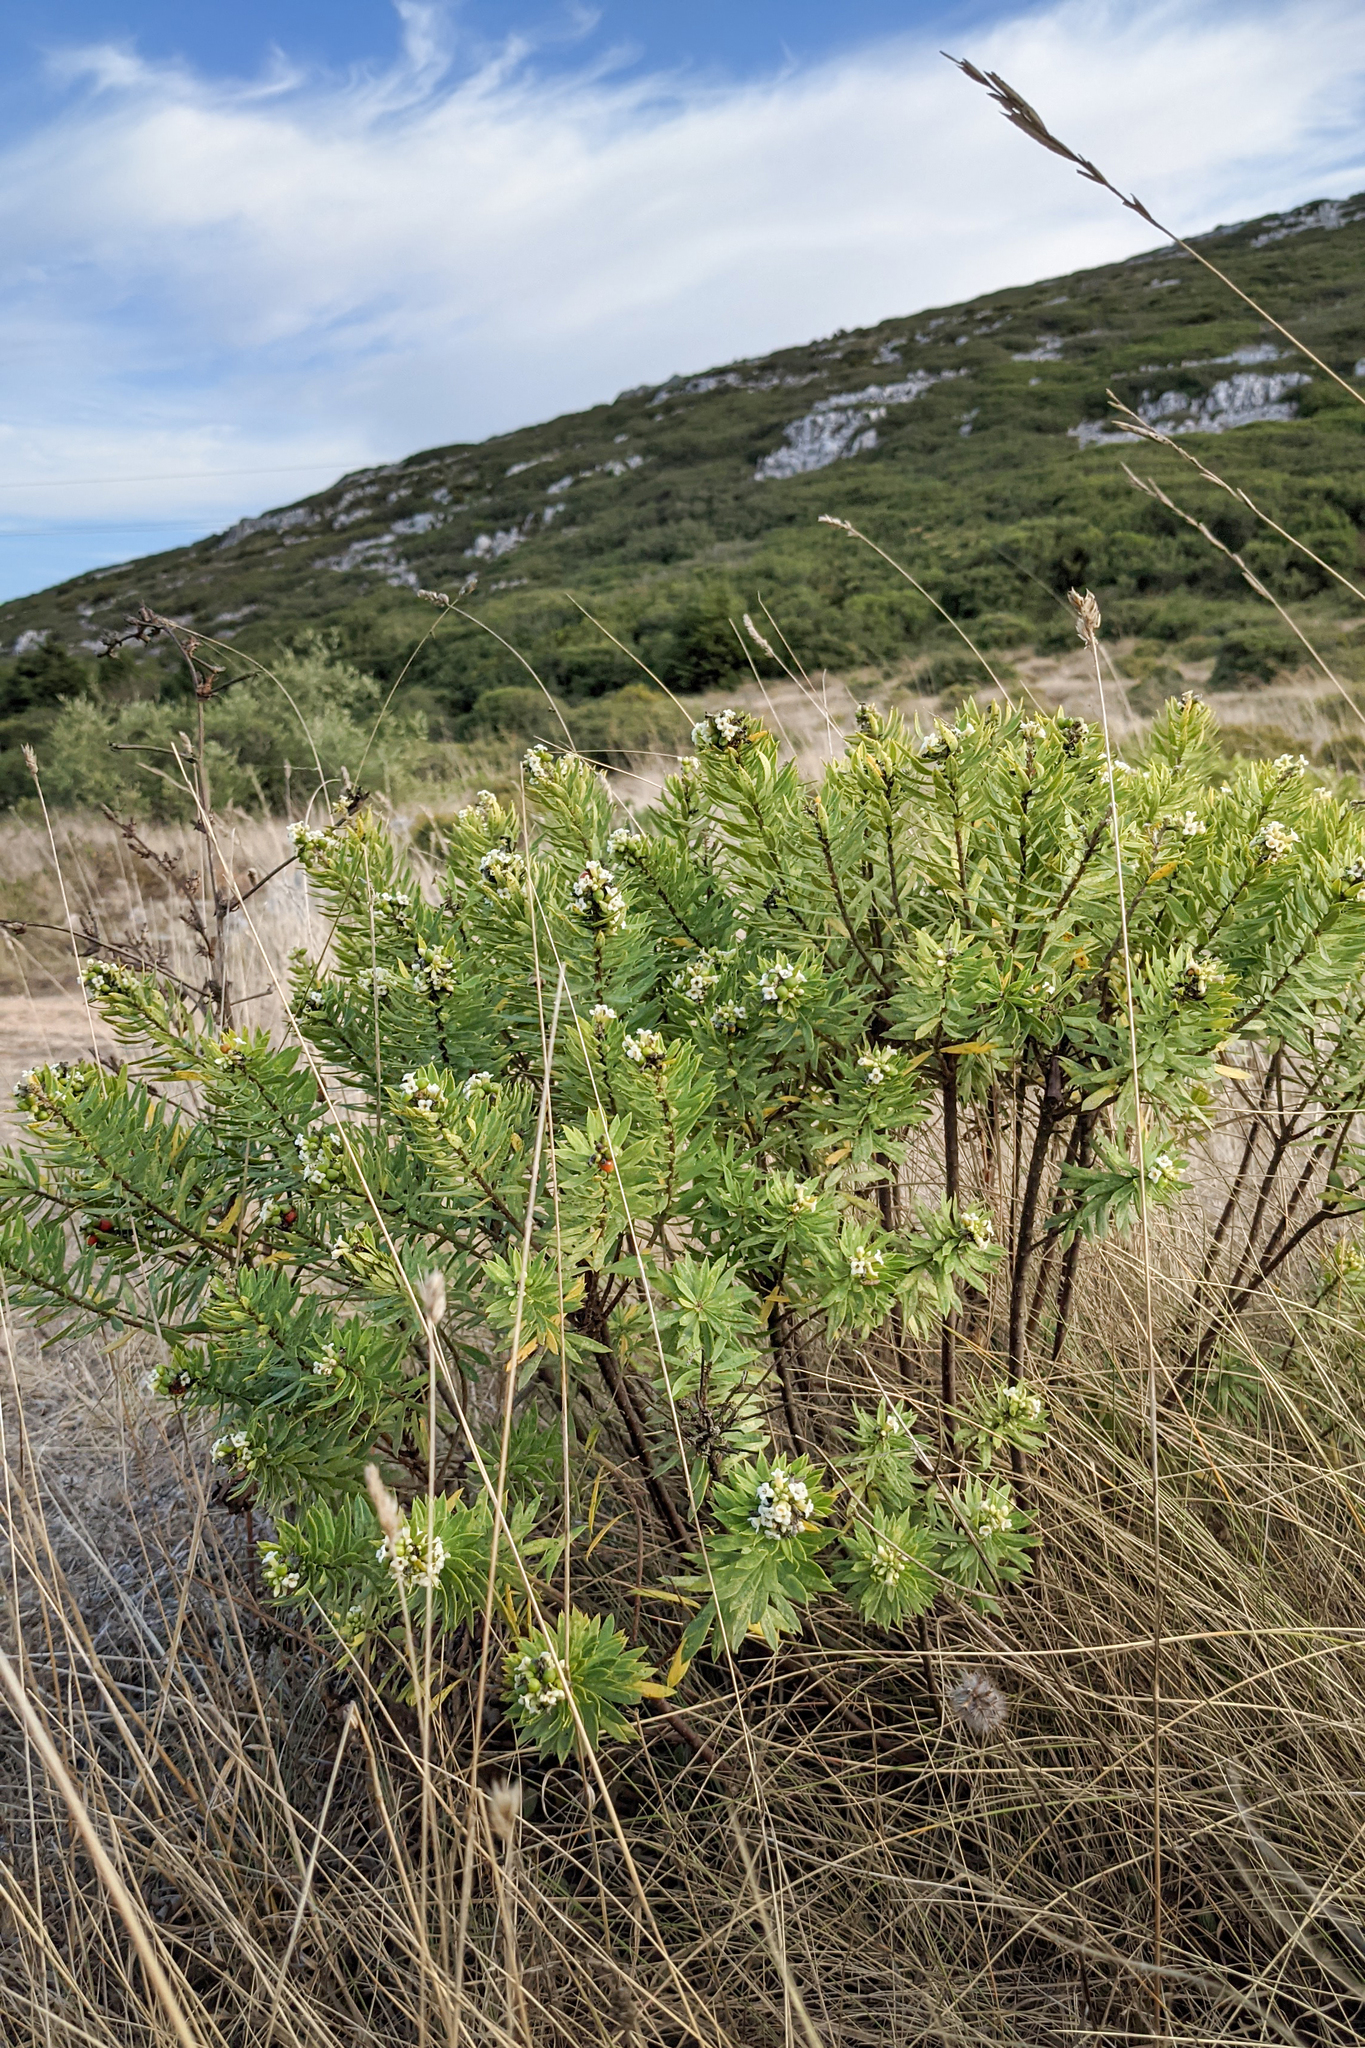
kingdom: Plantae
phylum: Tracheophyta
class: Magnoliopsida
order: Malvales
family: Thymelaeaceae
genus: Daphne
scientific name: Daphne gnidium
